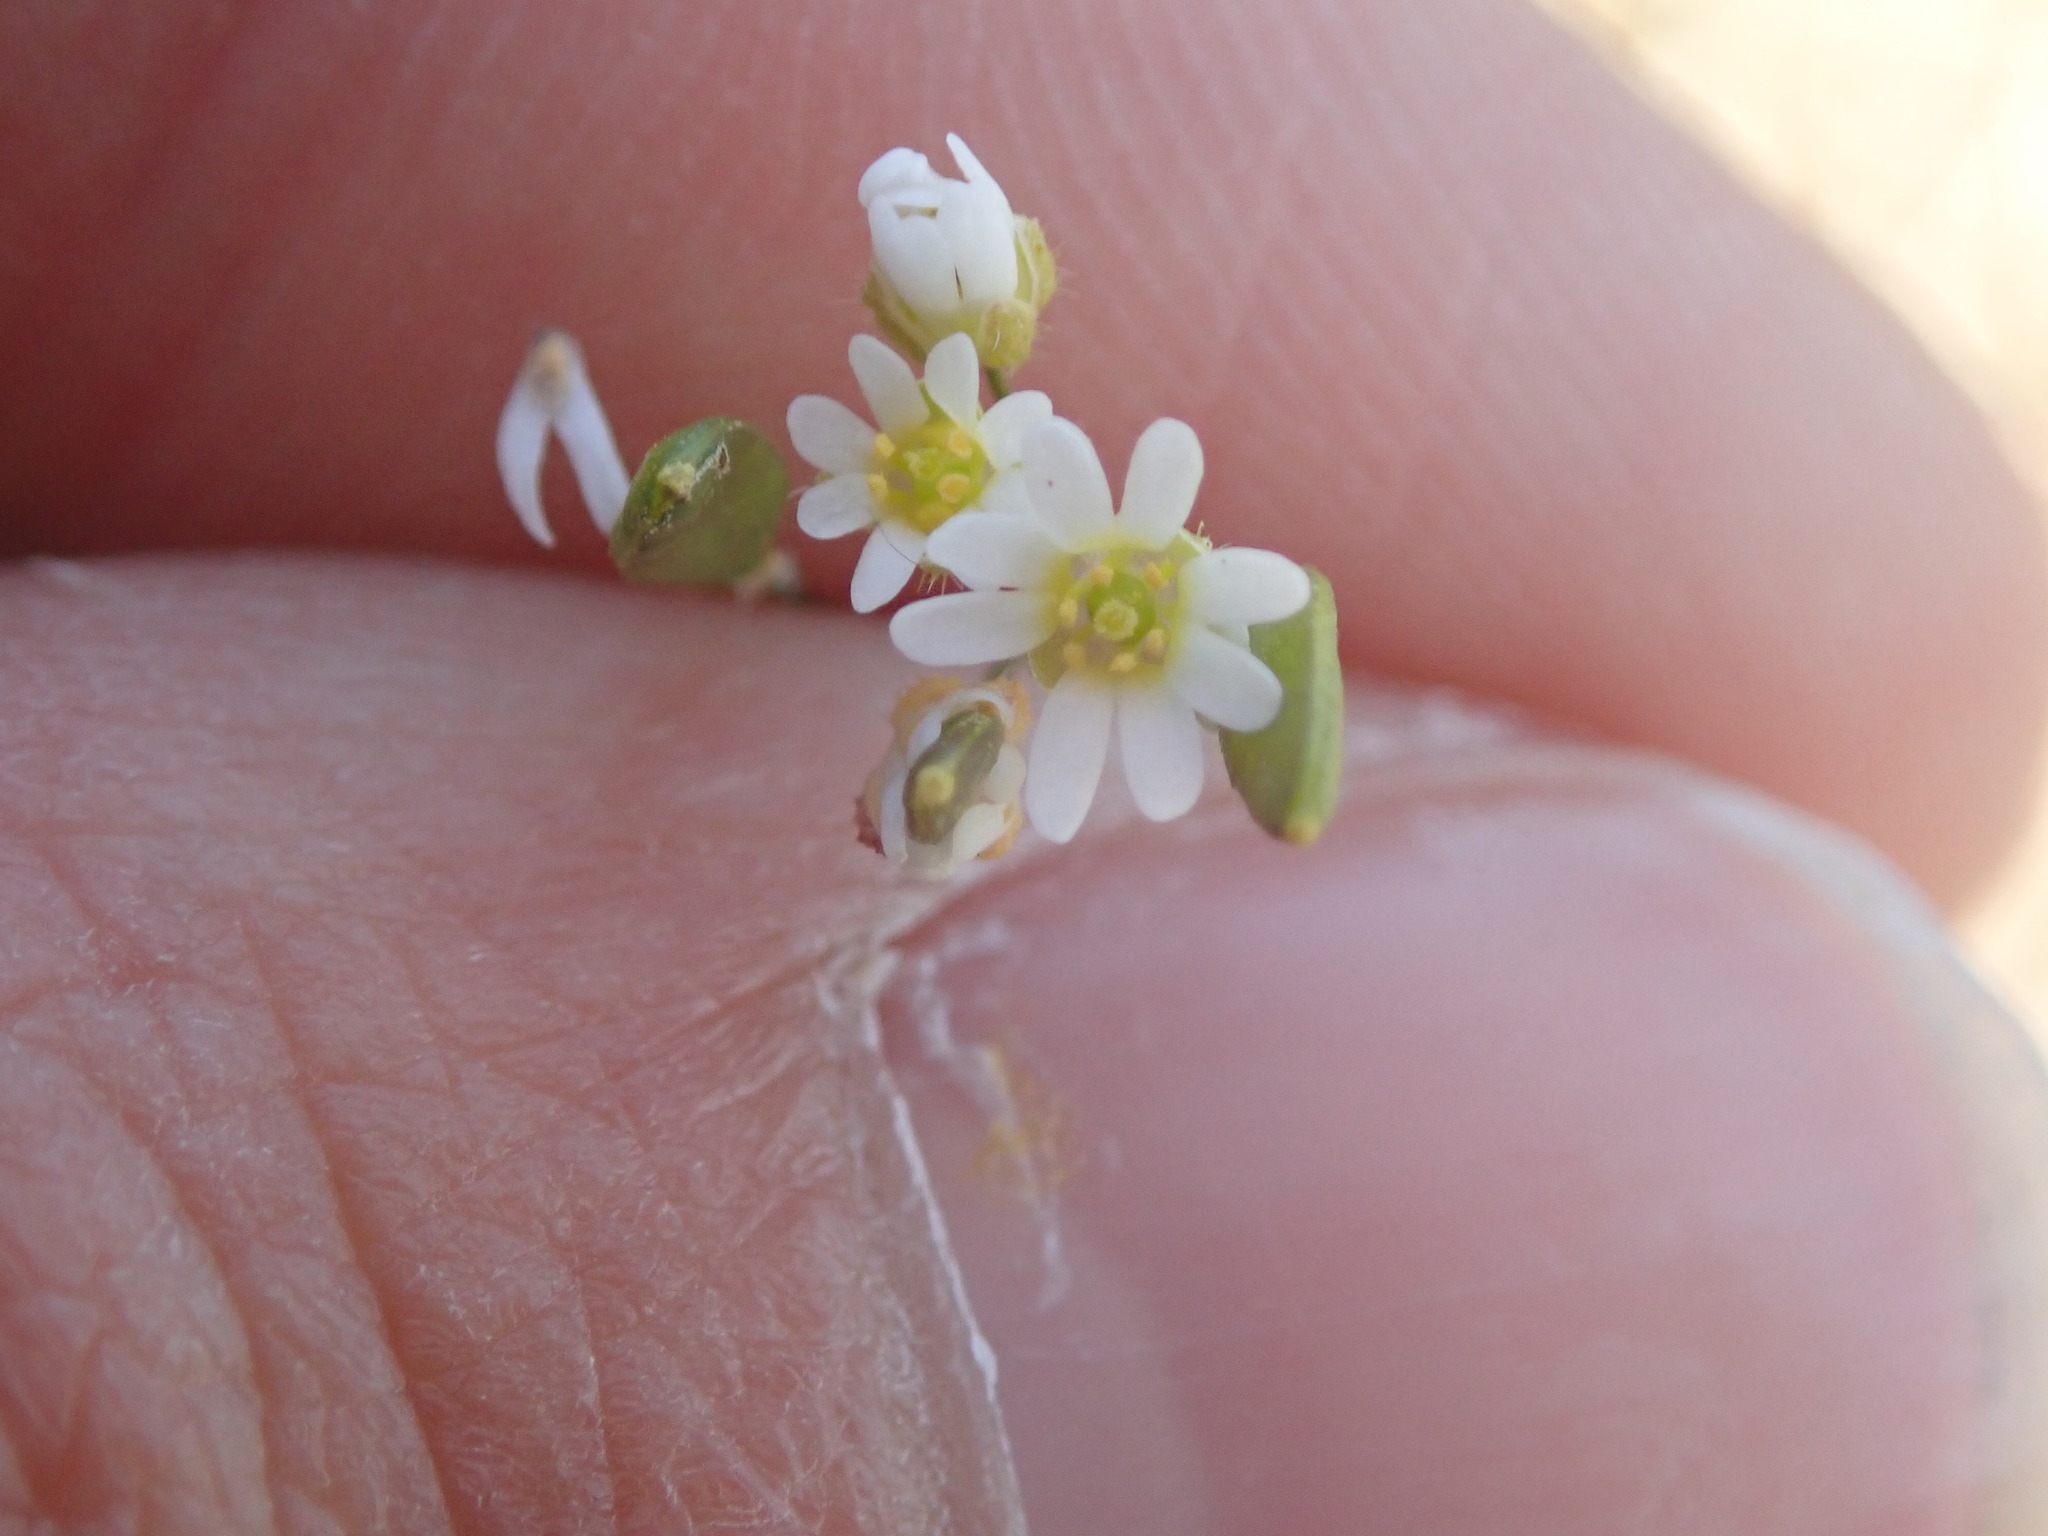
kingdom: Plantae
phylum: Tracheophyta
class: Magnoliopsida
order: Brassicales
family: Brassicaceae
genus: Draba
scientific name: Draba verna
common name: Spring draba
